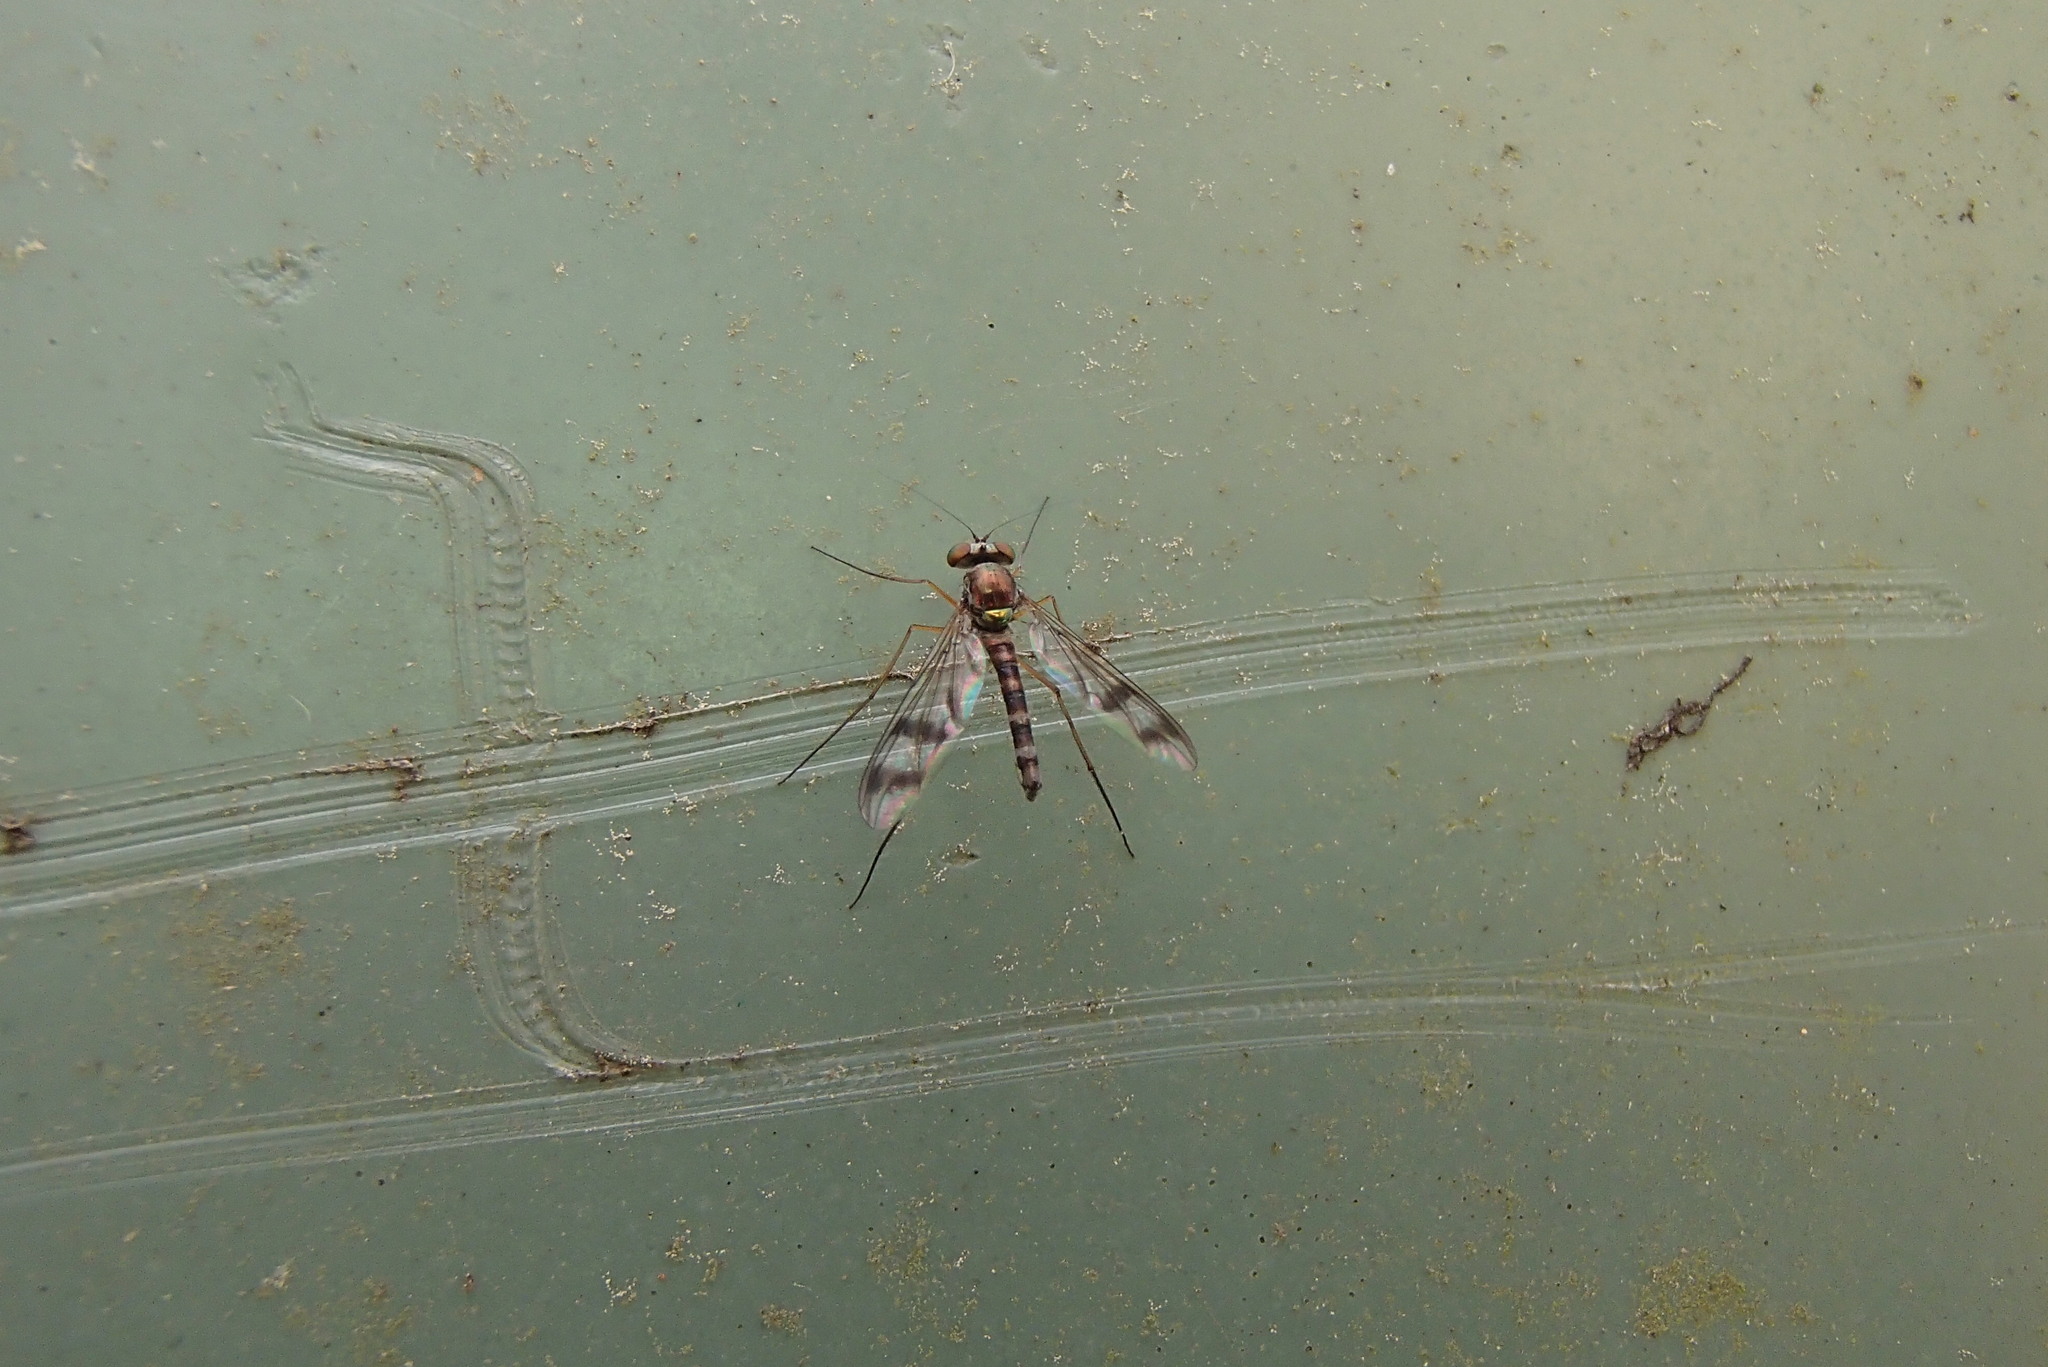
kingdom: Animalia
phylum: Arthropoda
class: Insecta
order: Diptera
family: Dolichopodidae
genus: Heteropsilopus
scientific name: Heteropsilopus squamifer
